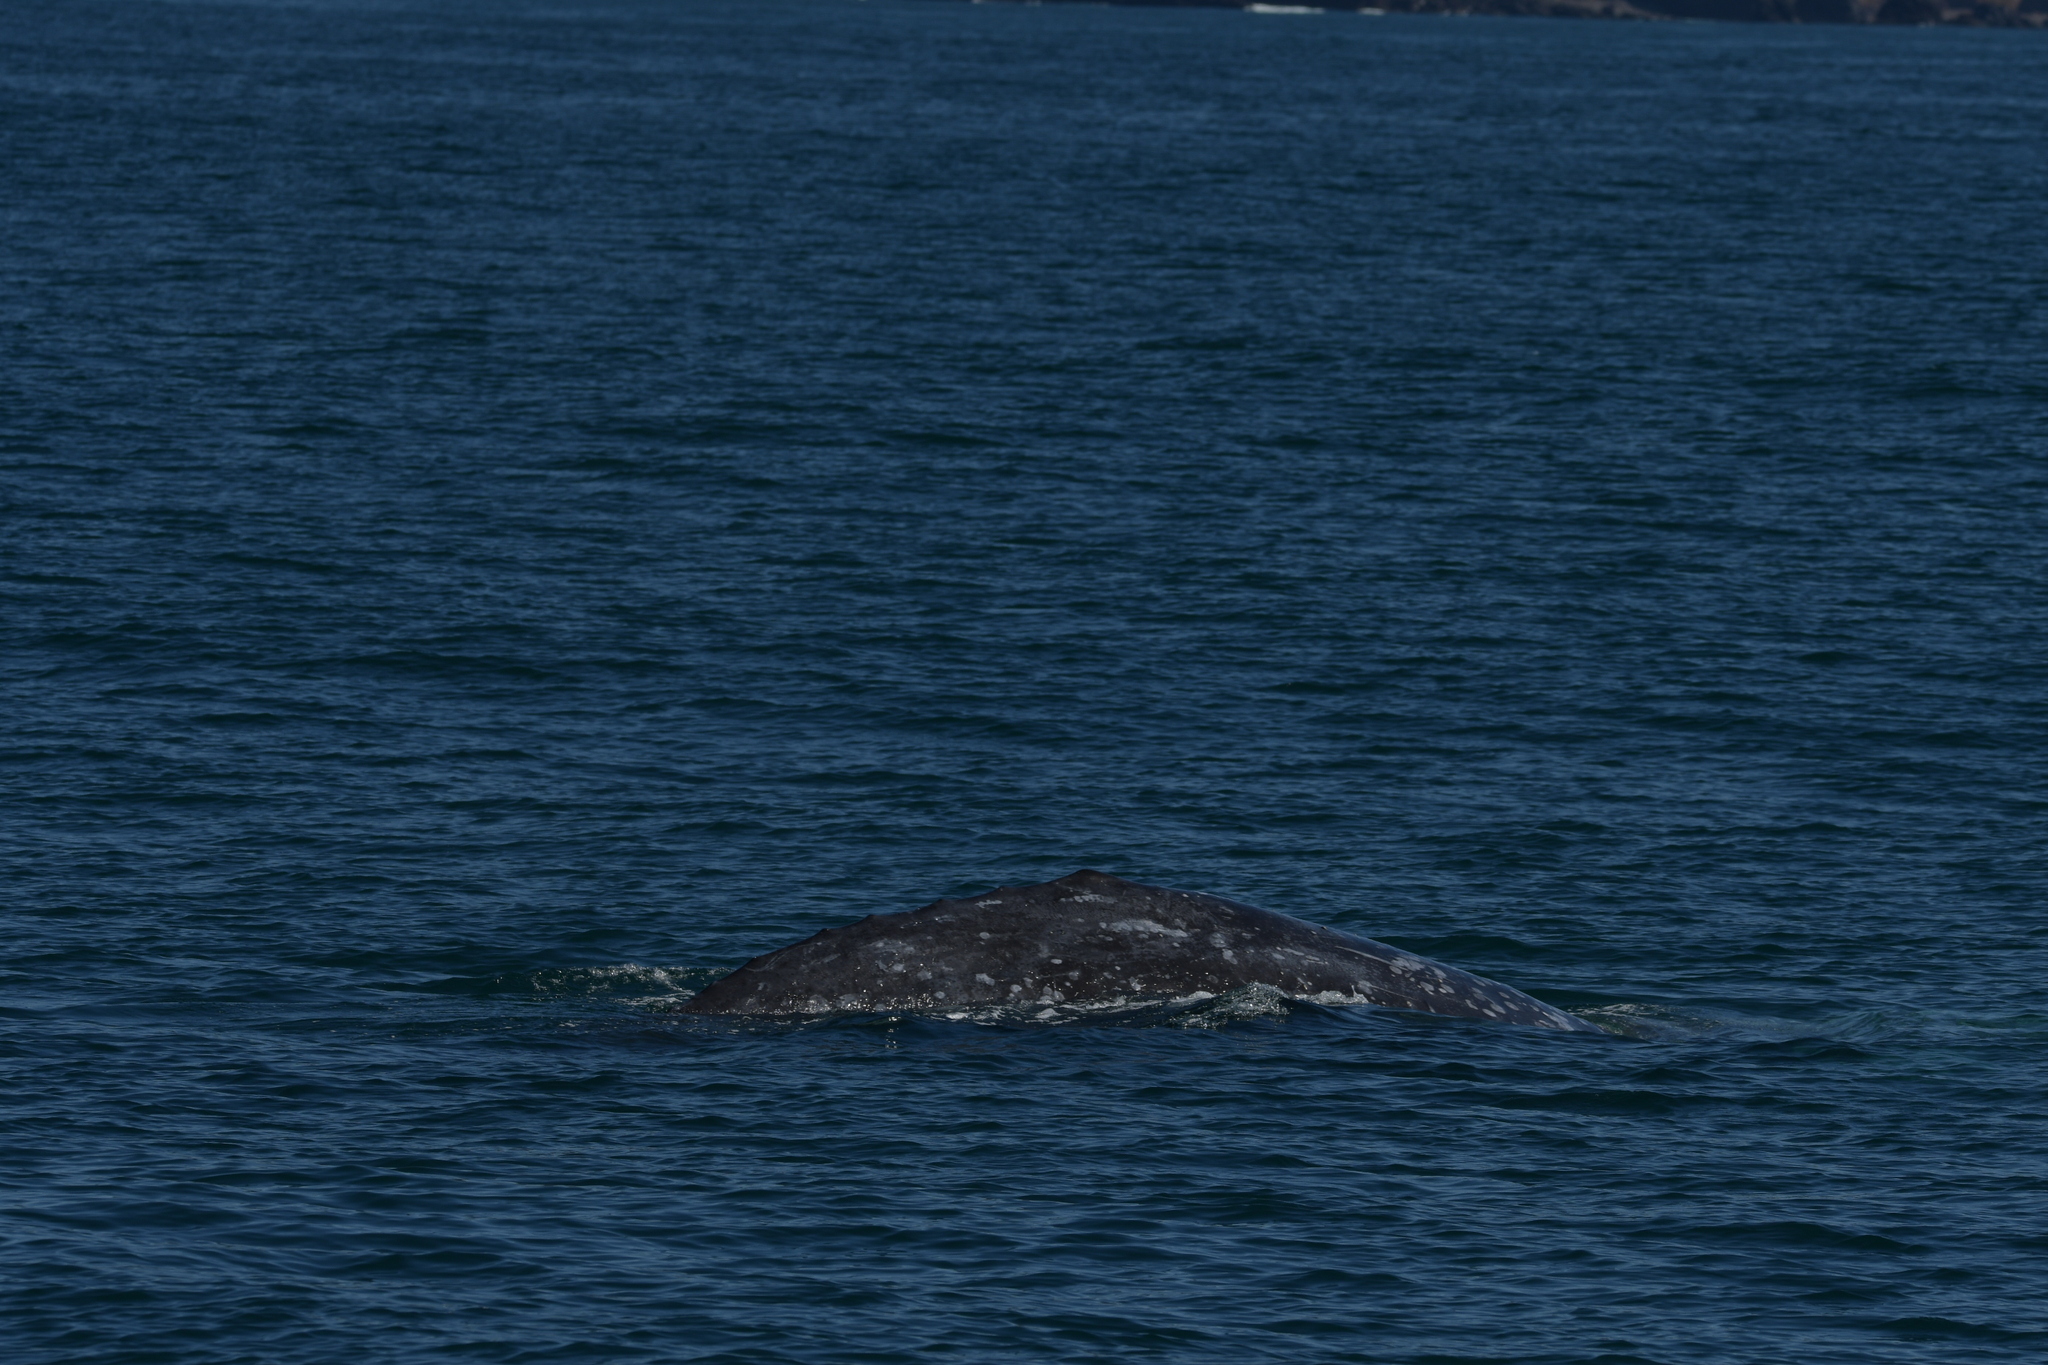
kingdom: Animalia
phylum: Chordata
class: Mammalia
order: Cetacea
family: Eschrichtiidae
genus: Eschrichtius
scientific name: Eschrichtius robustus
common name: Gray whale
